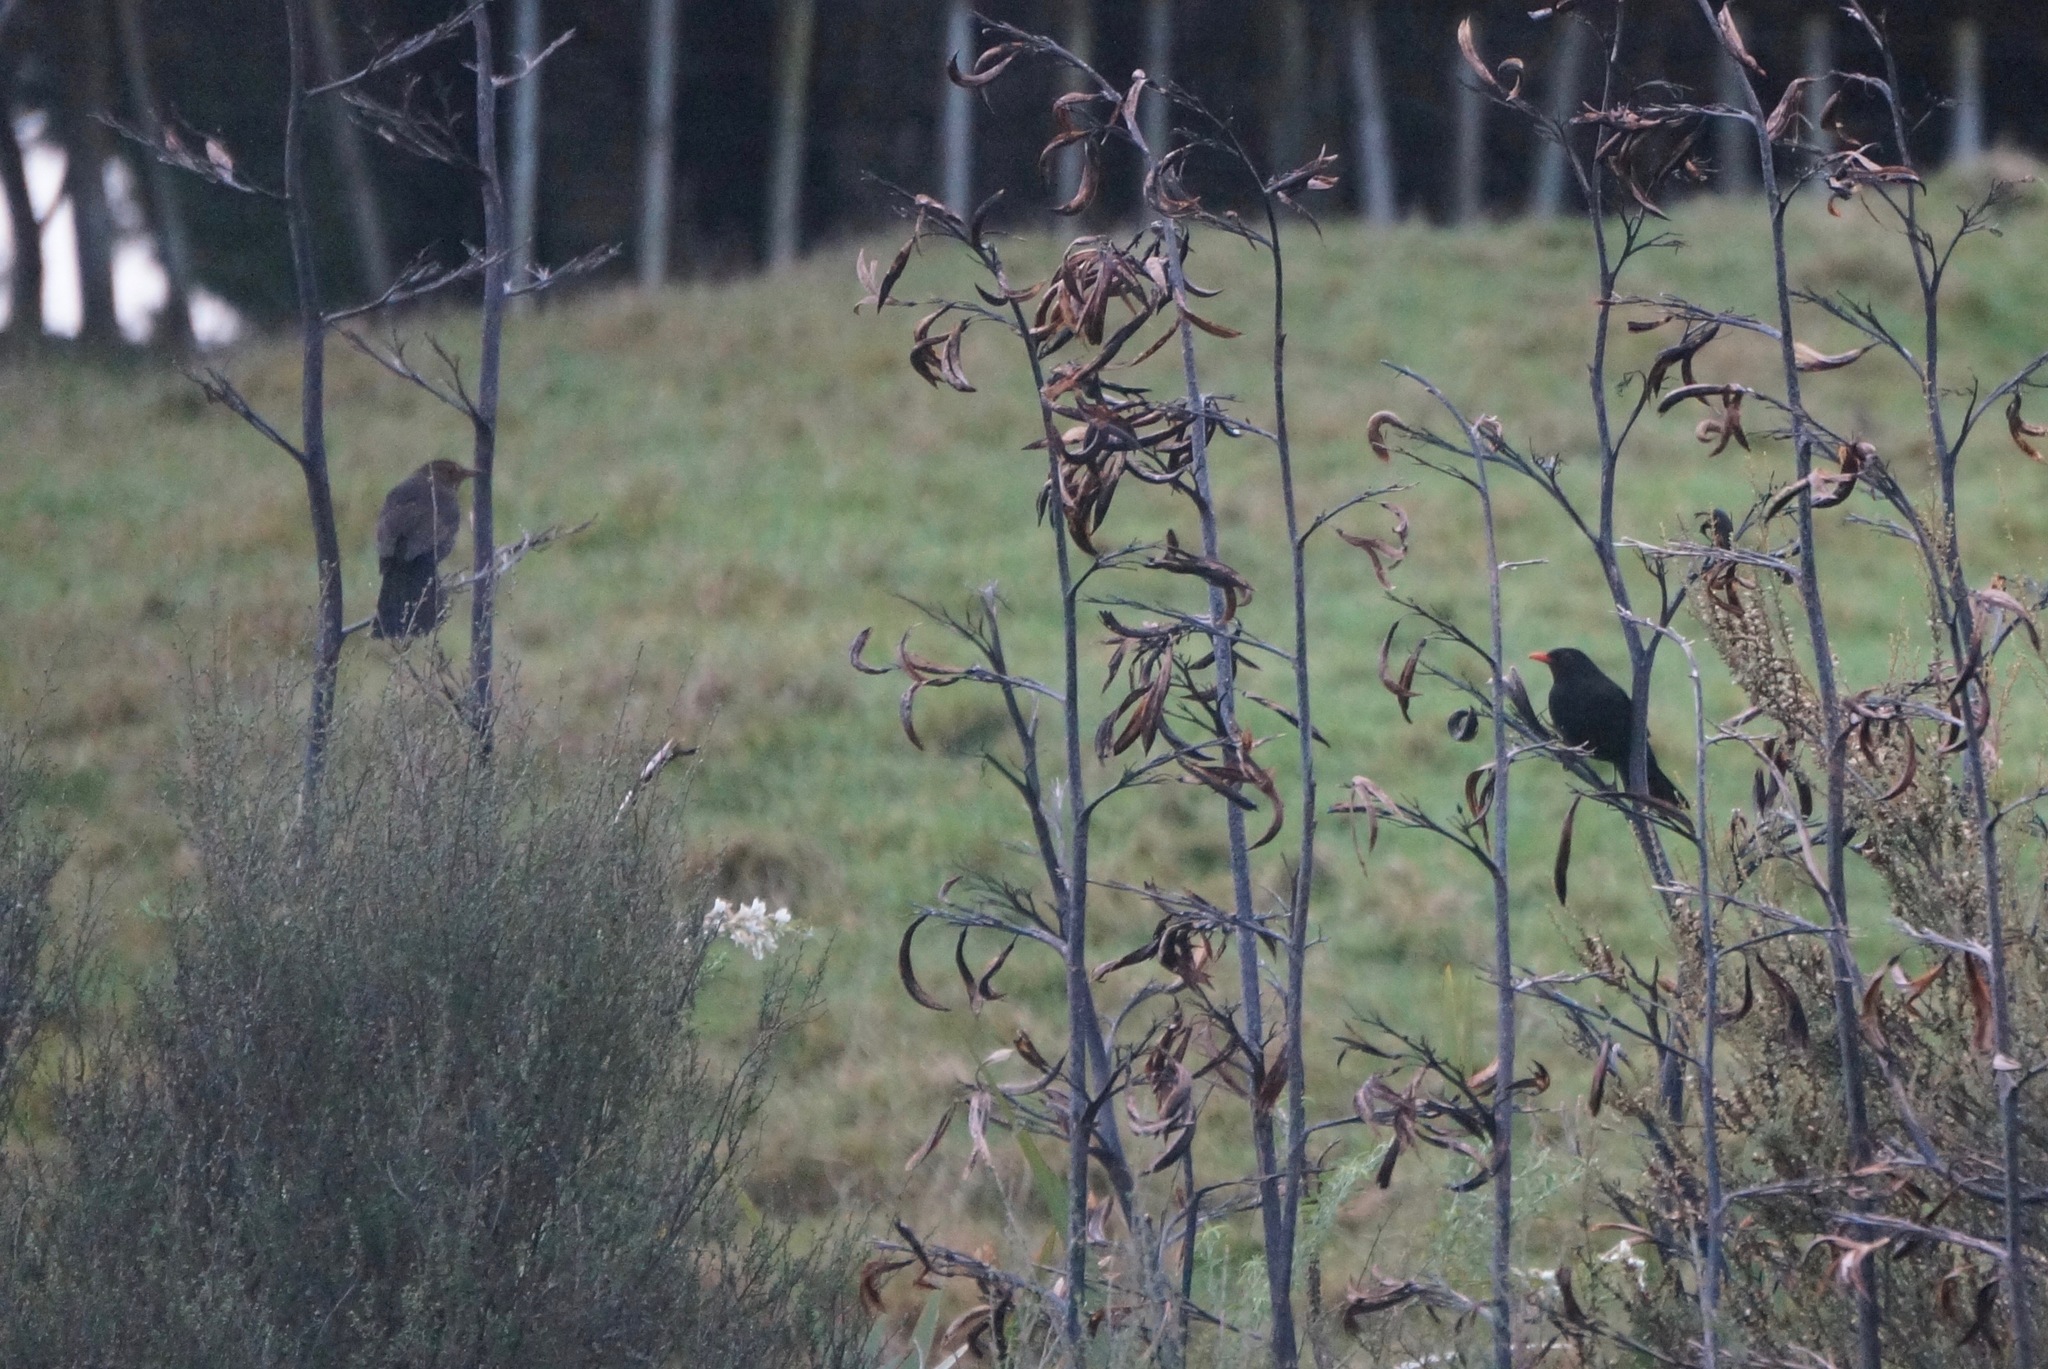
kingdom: Animalia
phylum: Chordata
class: Aves
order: Passeriformes
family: Turdidae
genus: Turdus
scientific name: Turdus merula
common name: Common blackbird
